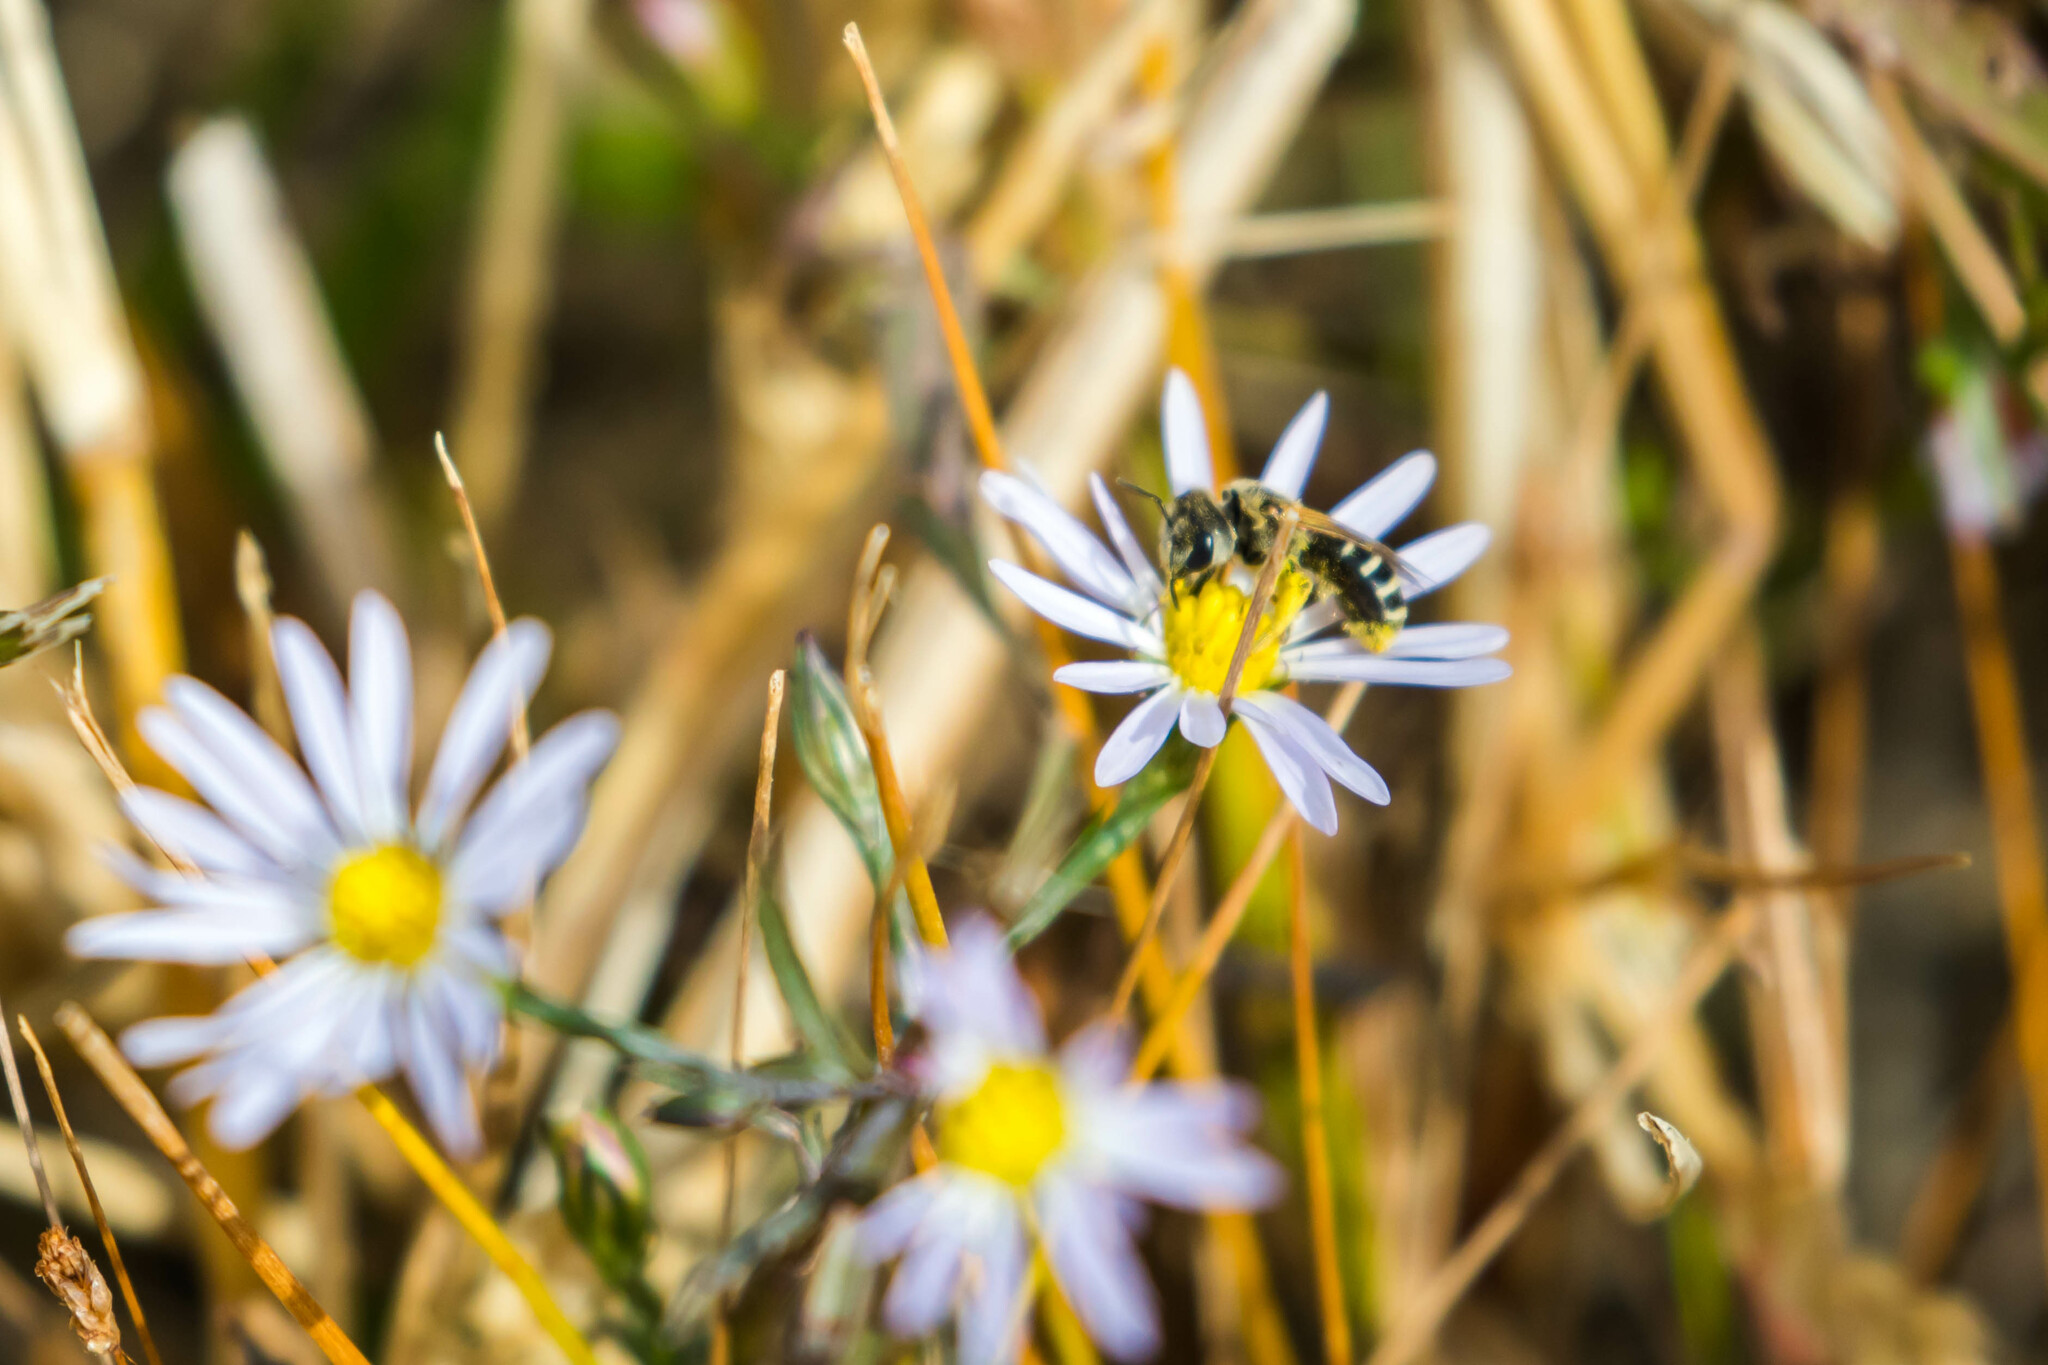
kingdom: Animalia
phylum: Arthropoda
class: Insecta
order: Hymenoptera
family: Halictidae
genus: Halictus
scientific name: Halictus ligatus
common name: Ligated furrow bee
